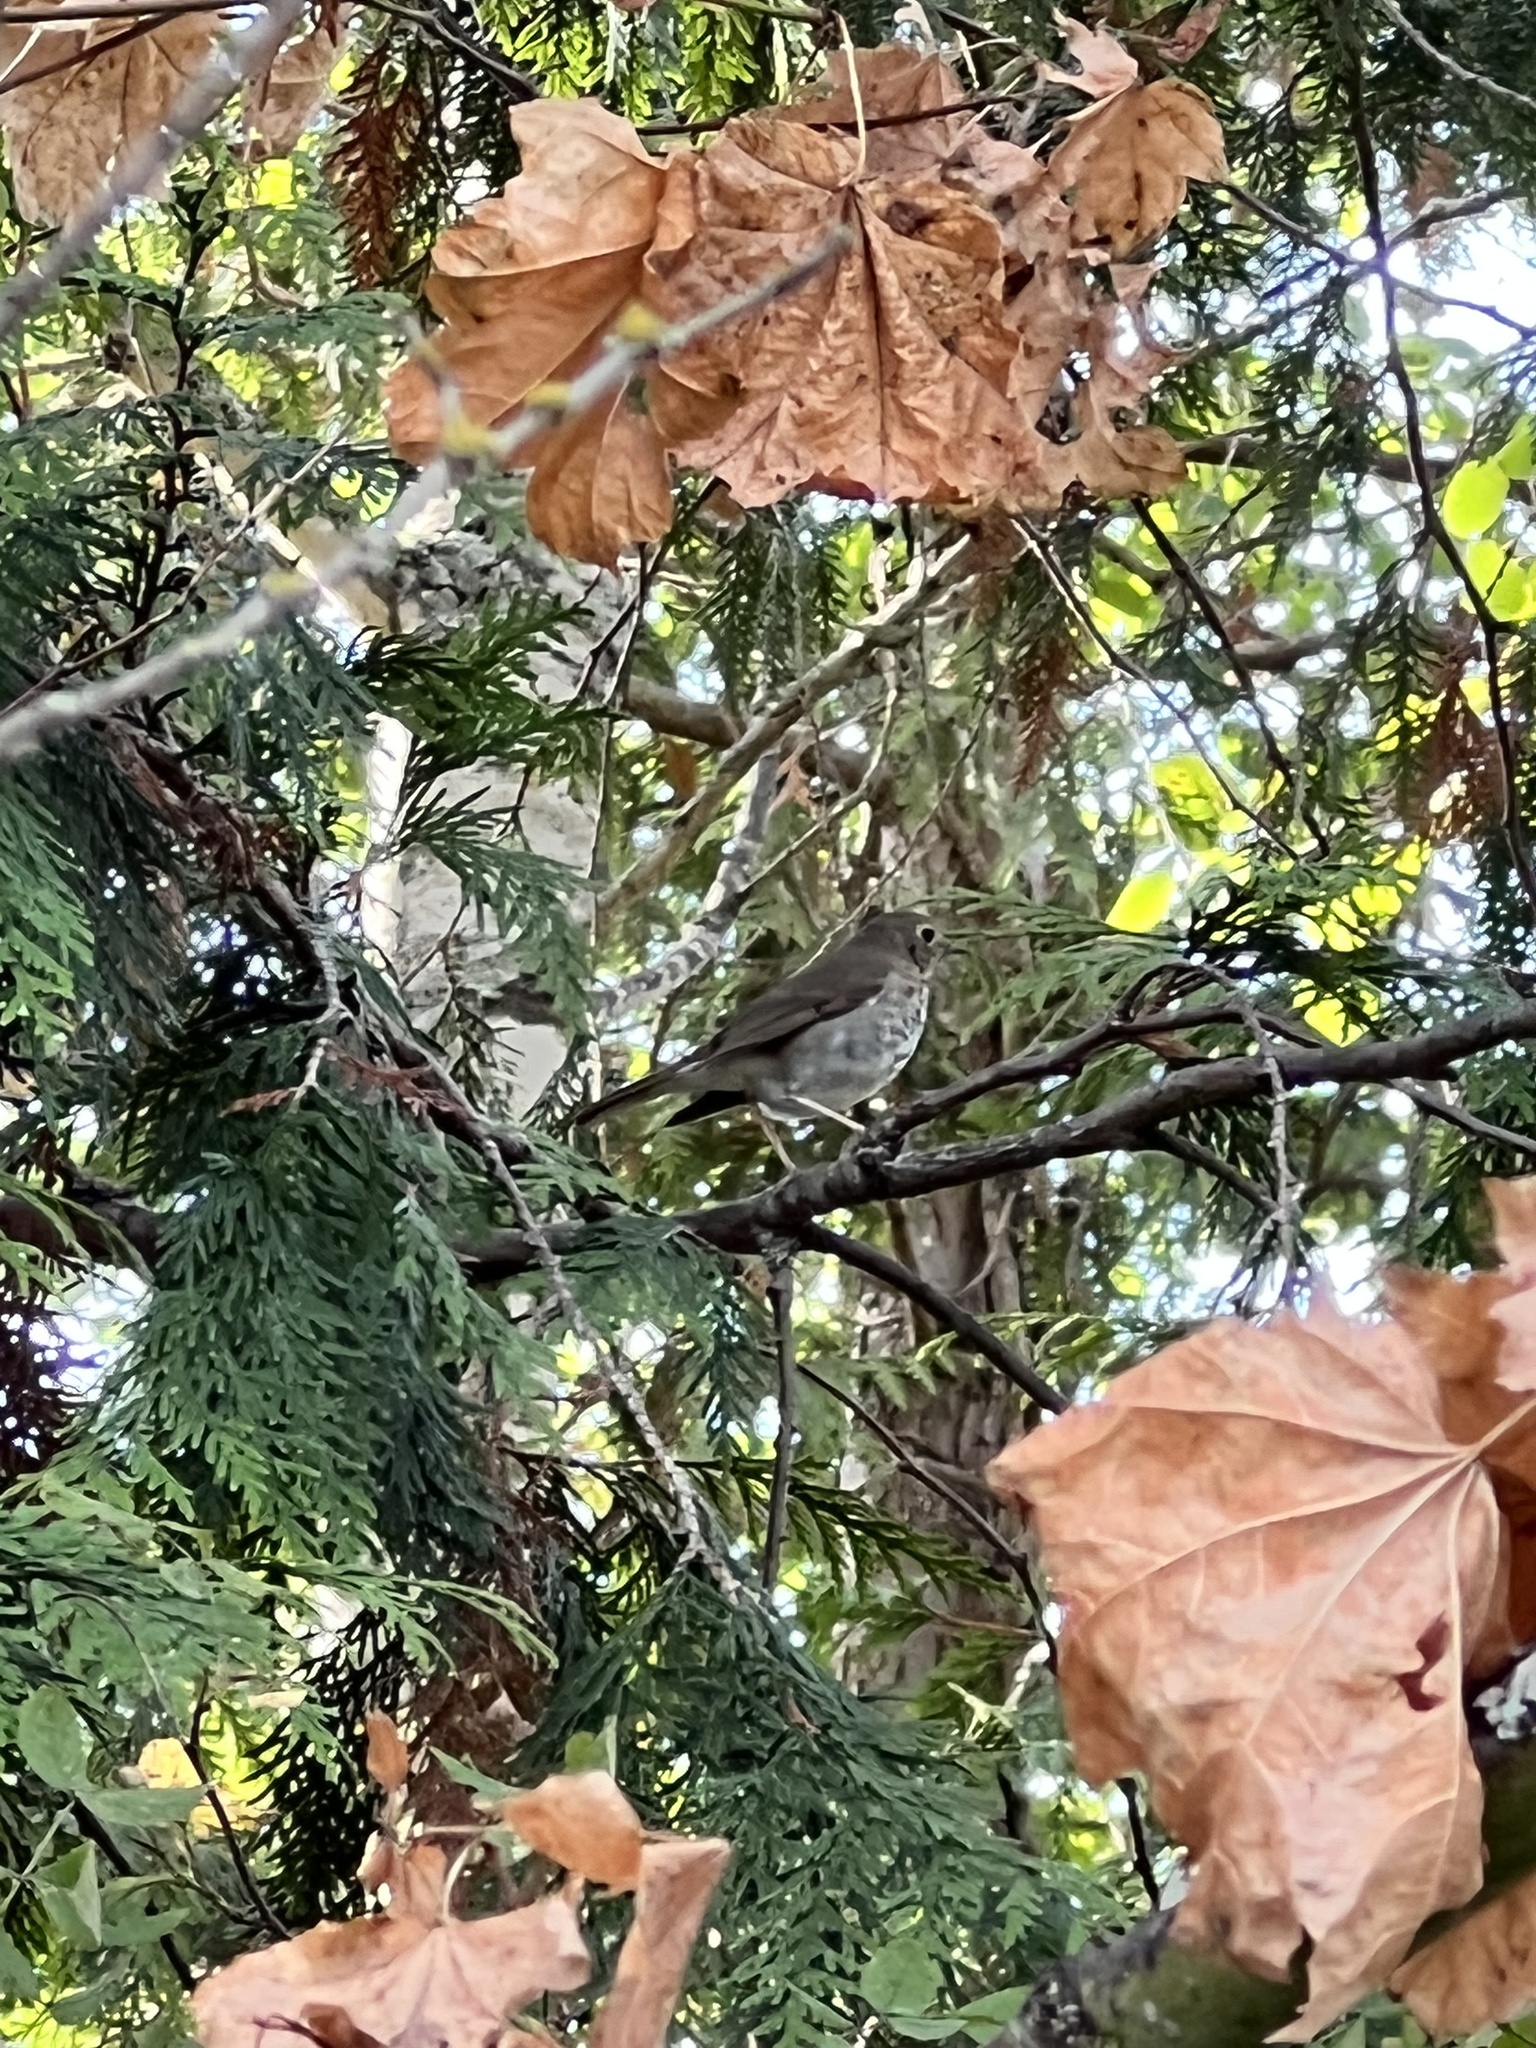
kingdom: Animalia
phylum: Chordata
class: Aves
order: Passeriformes
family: Turdidae
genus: Catharus
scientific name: Catharus guttatus
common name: Hermit thrush
